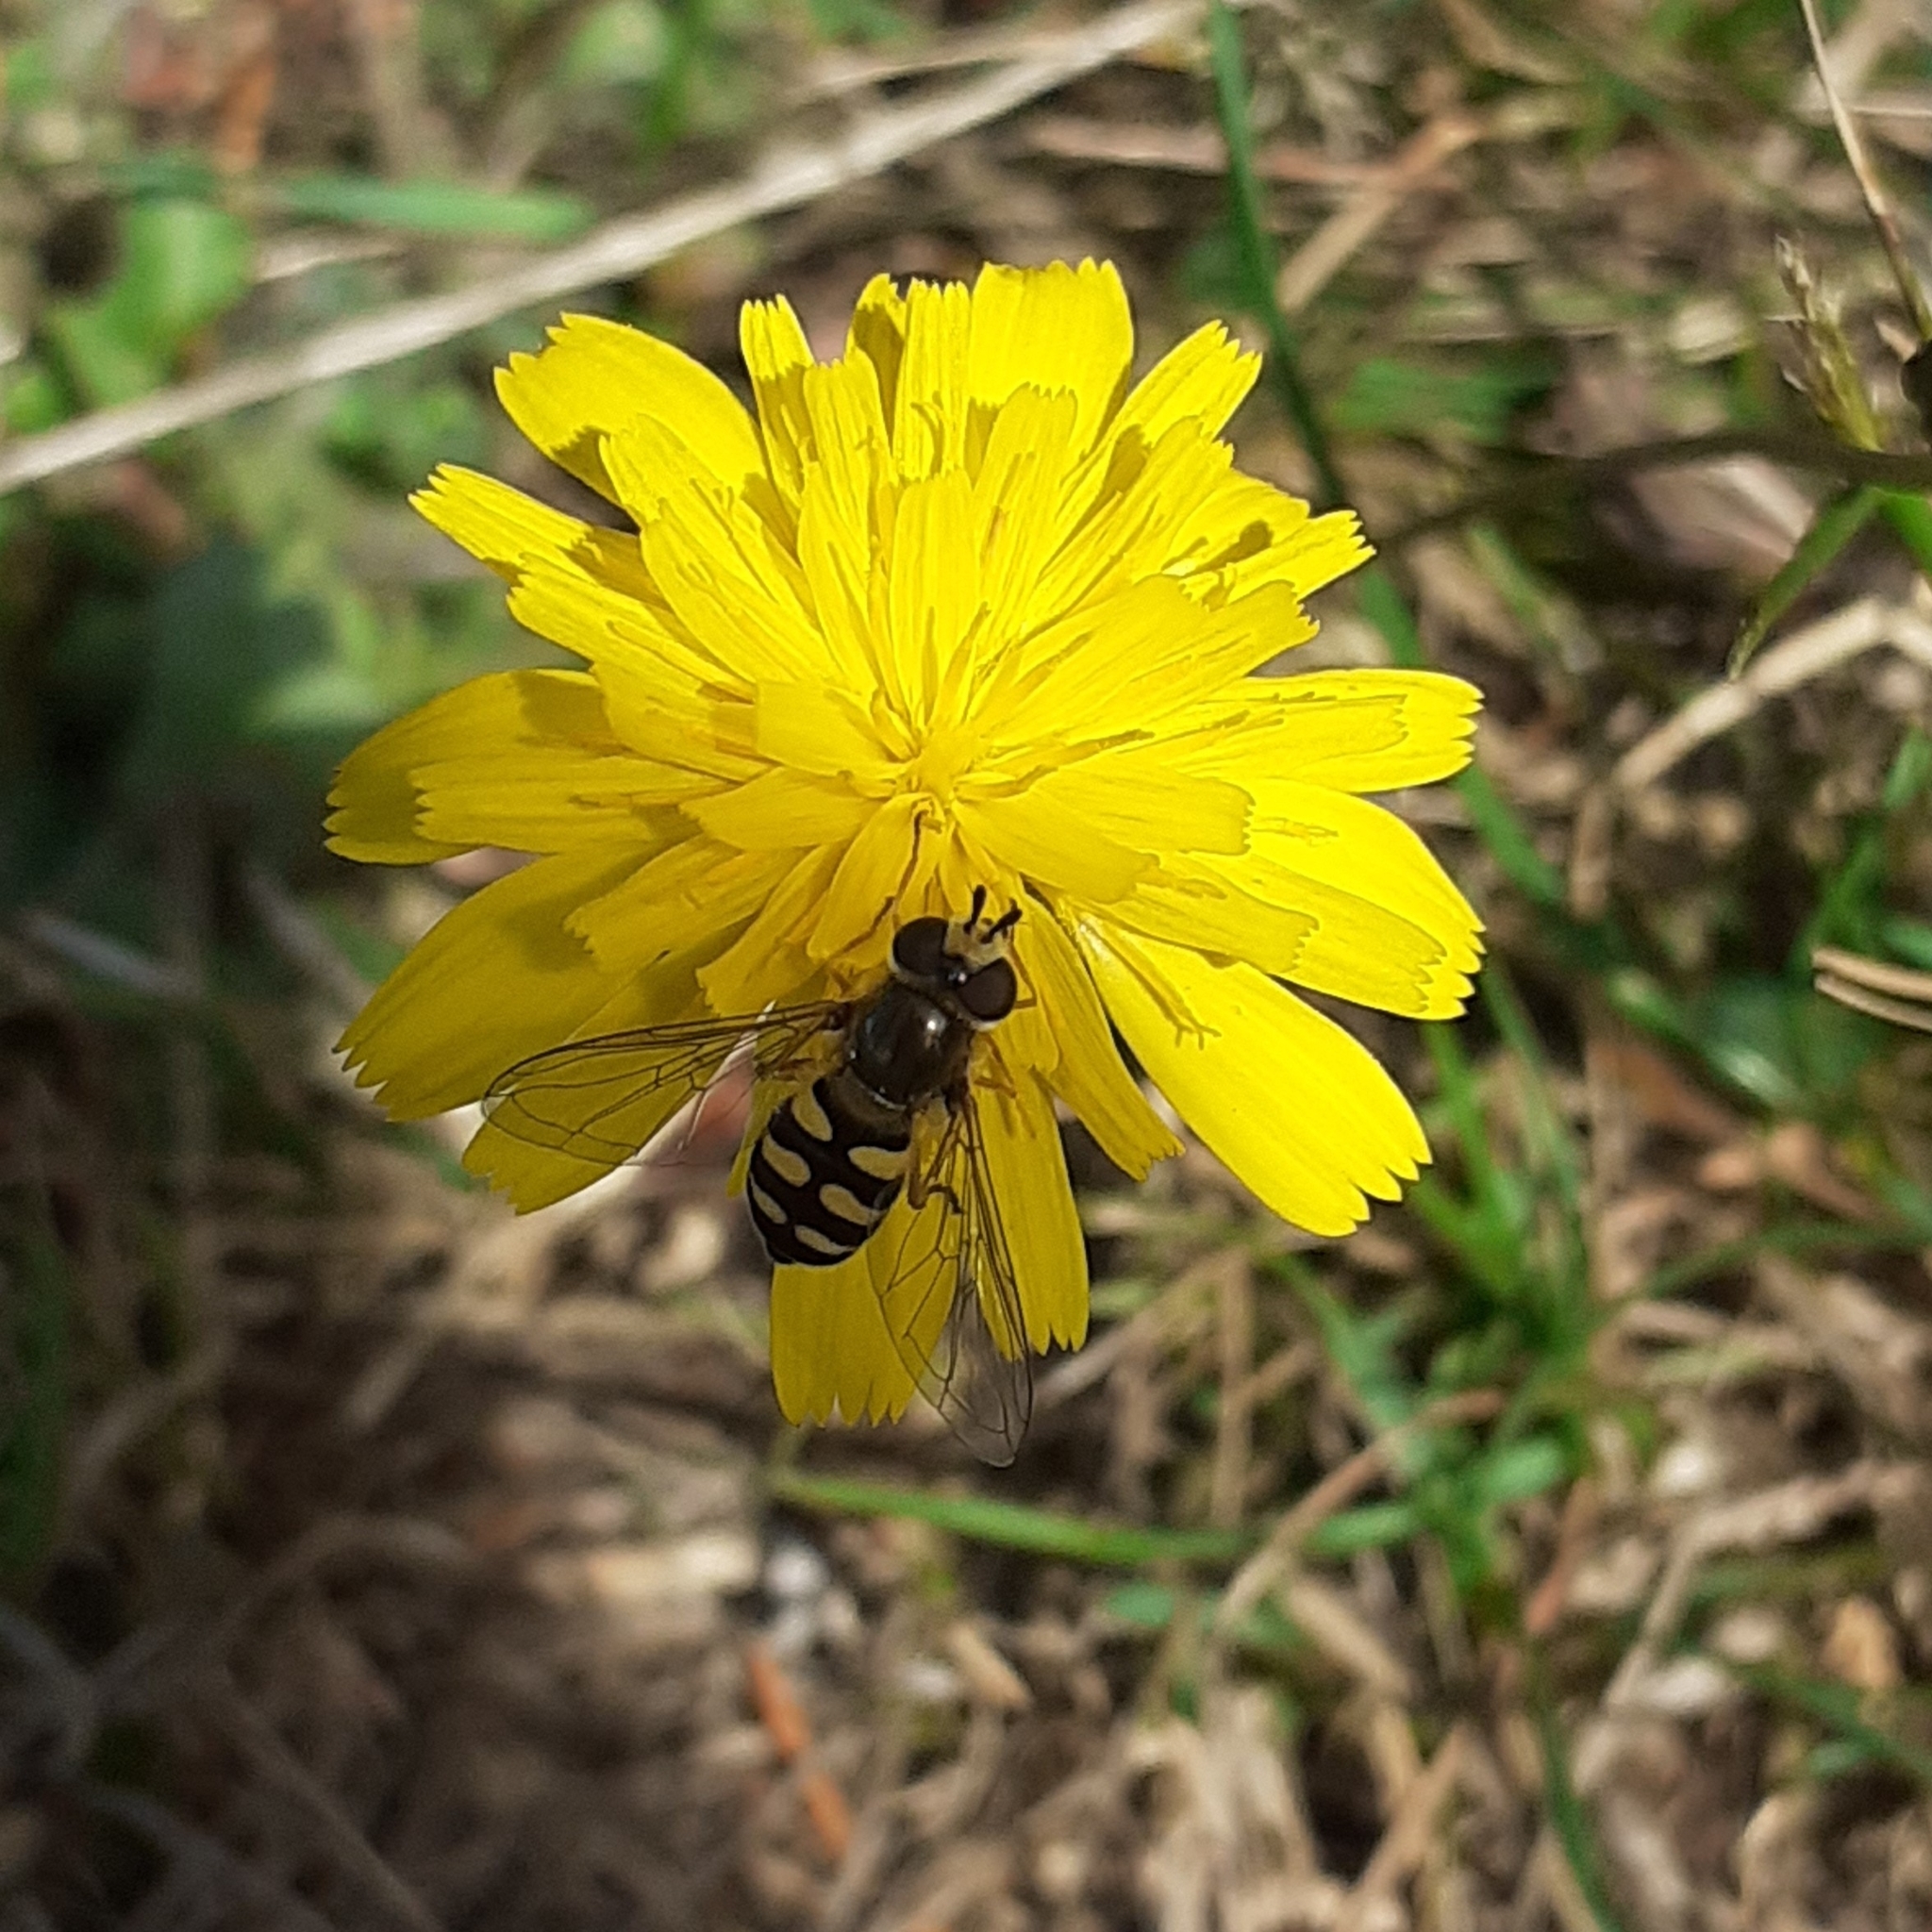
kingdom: Animalia
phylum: Arthropoda
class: Insecta
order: Diptera
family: Syrphidae
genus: Eupeodes
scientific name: Eupeodes corollae
